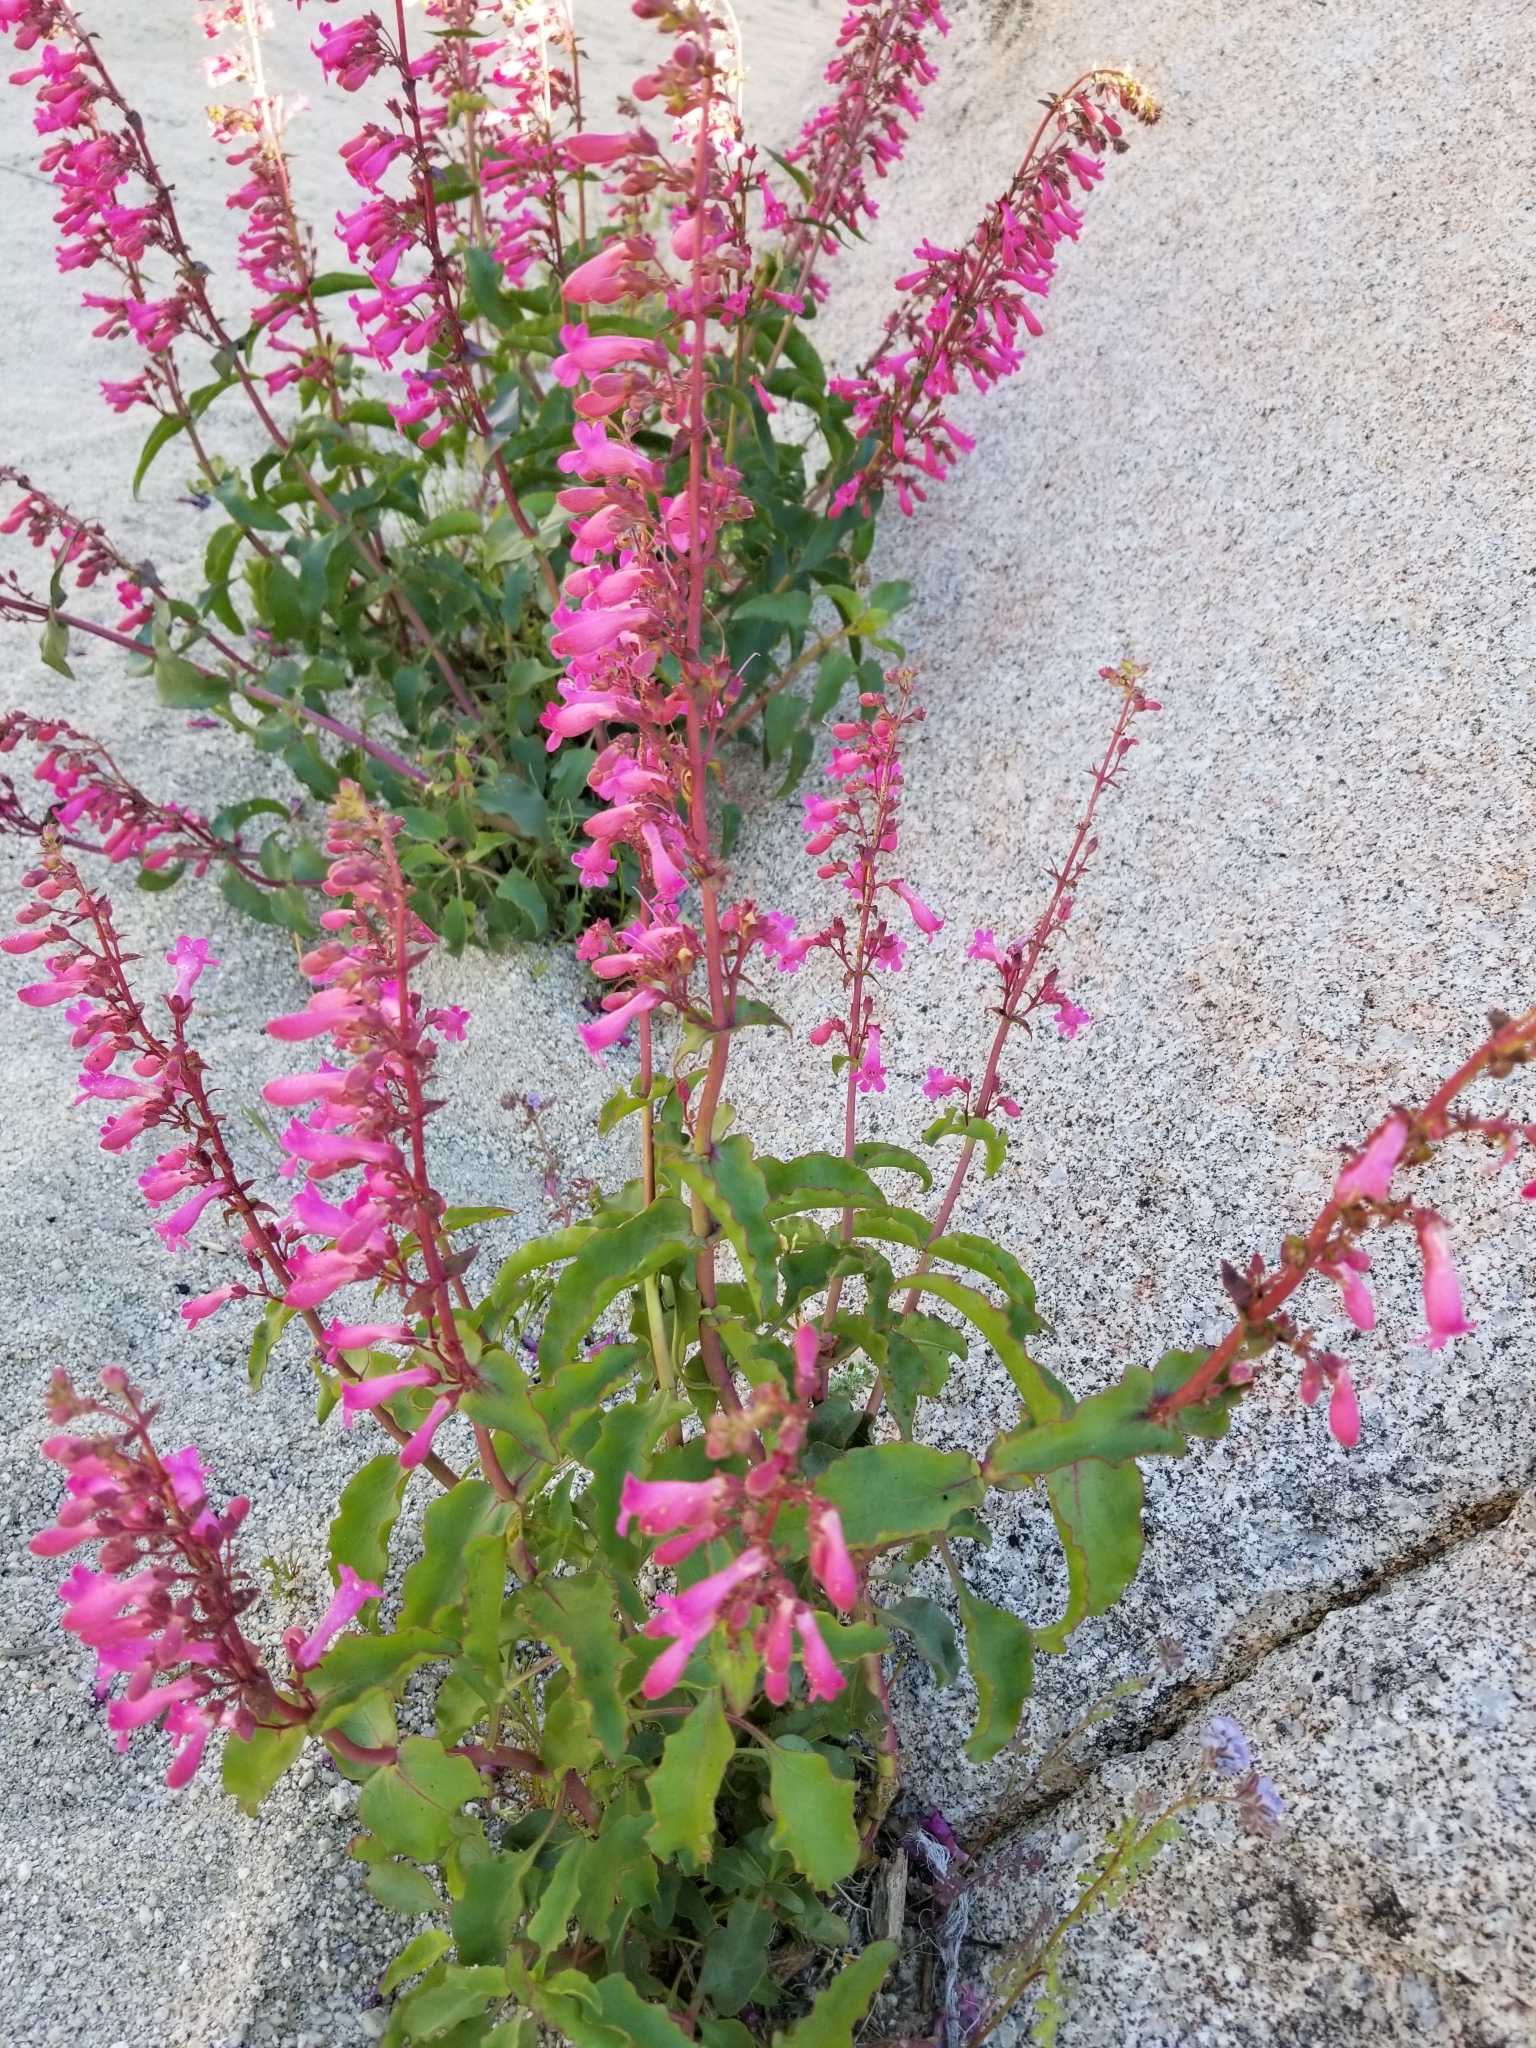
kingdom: Plantae
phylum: Tracheophyta
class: Magnoliopsida
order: Lamiales
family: Plantaginaceae
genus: Penstemon
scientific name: Penstemon clevelandii
